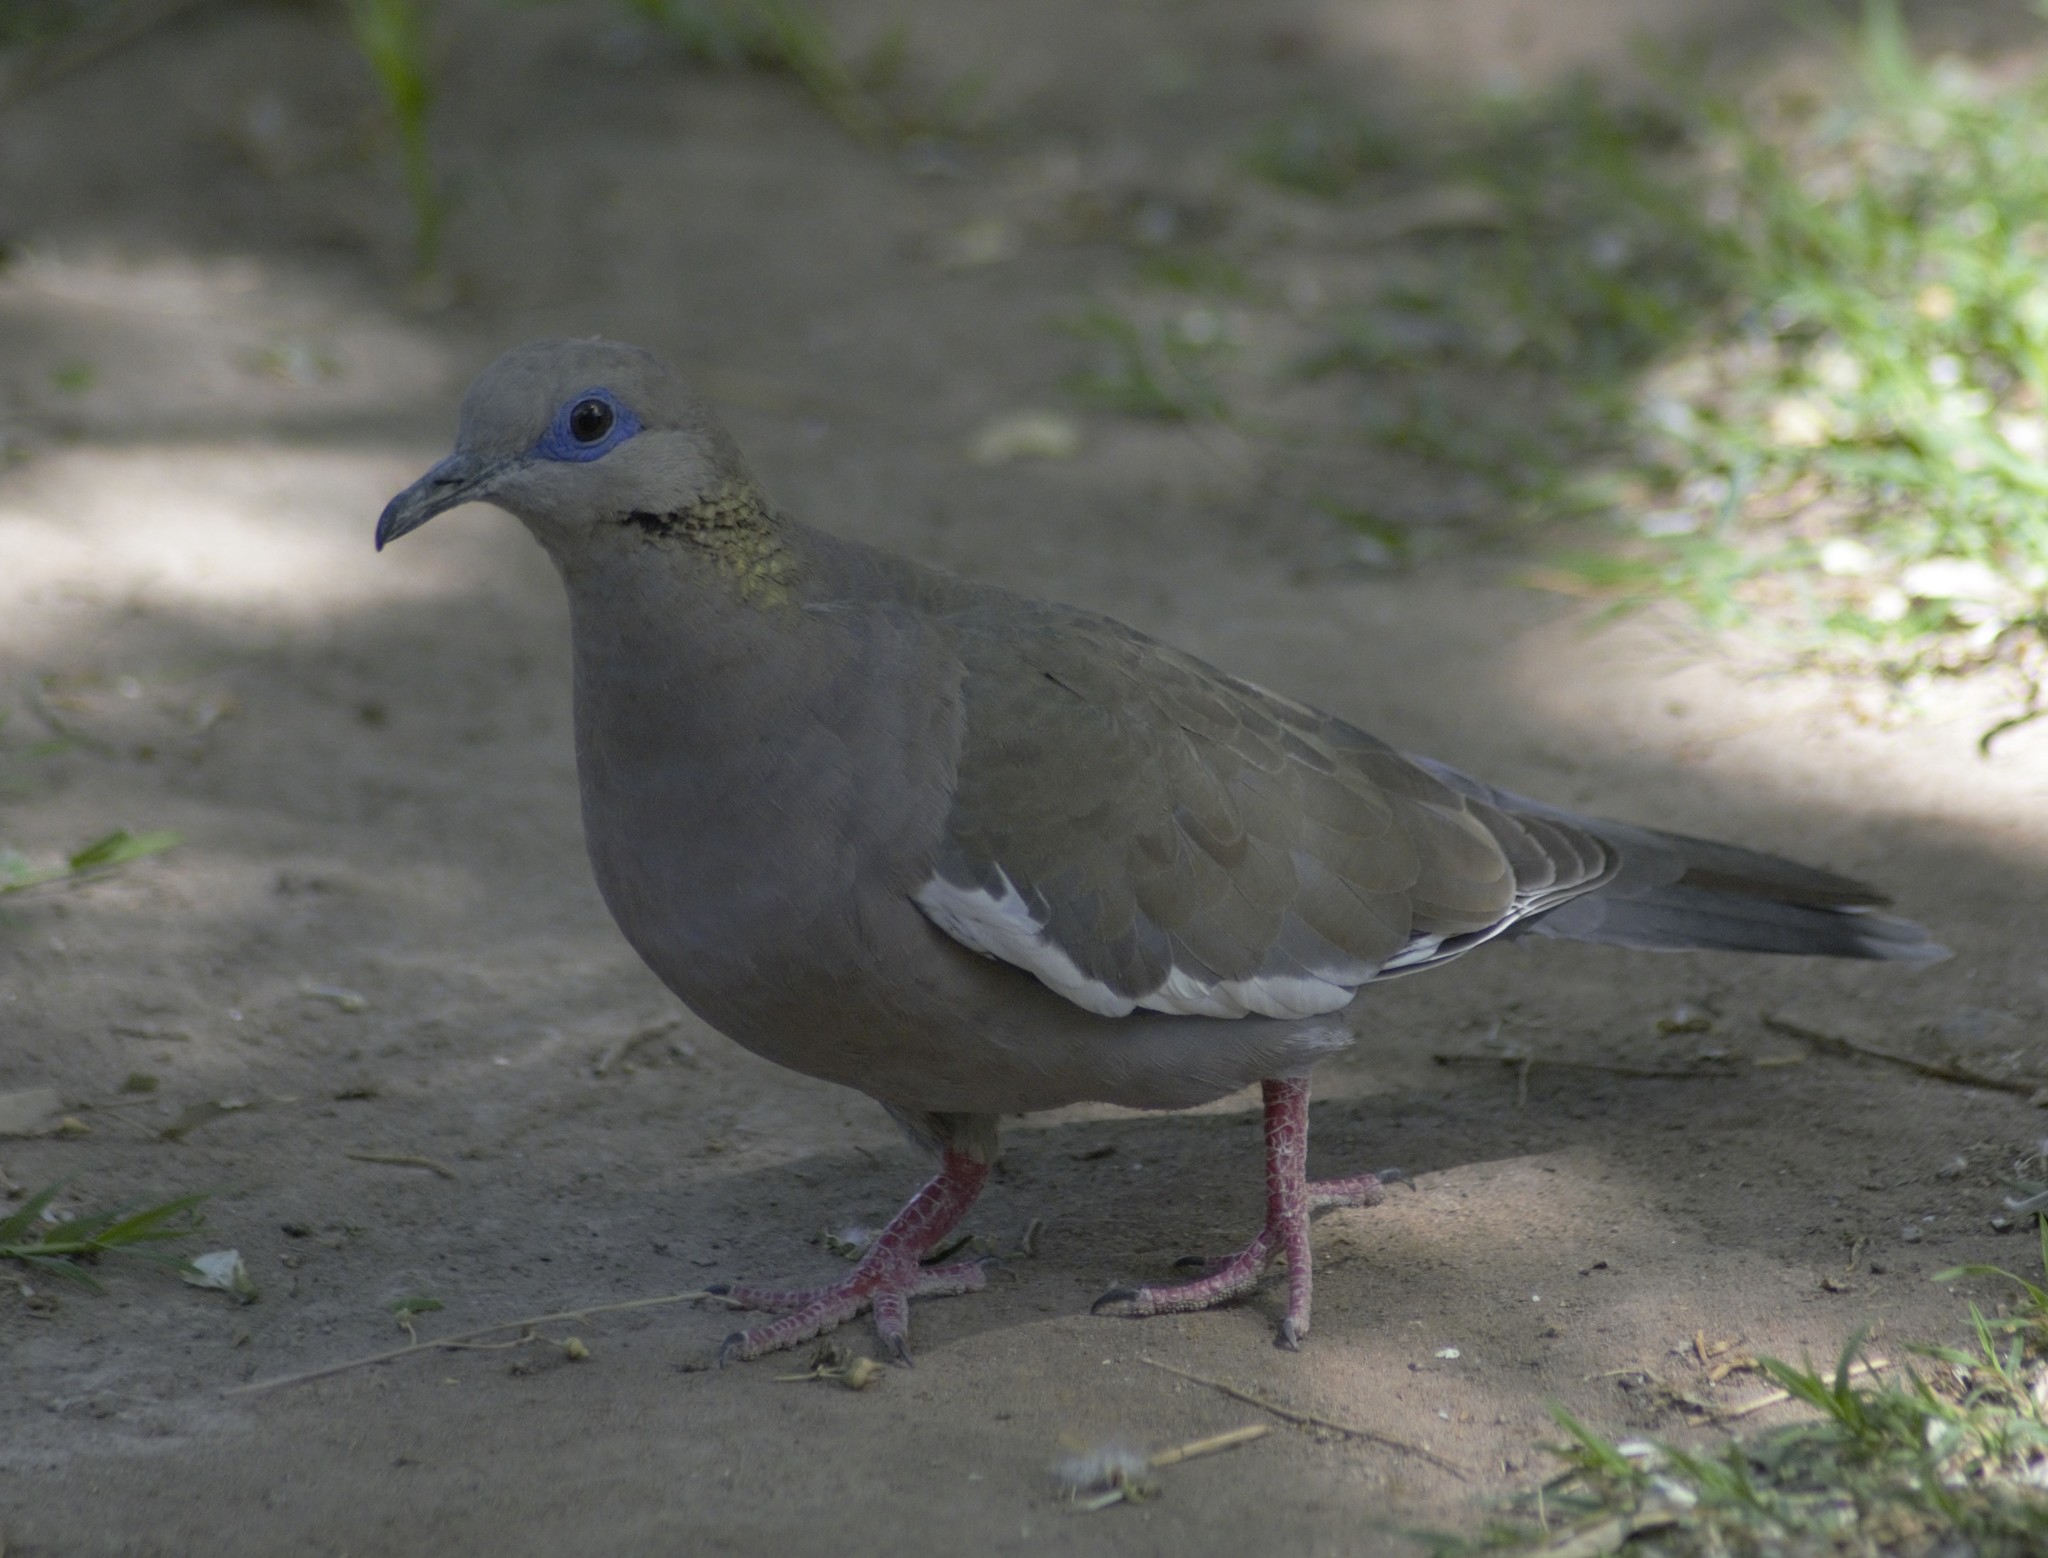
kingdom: Animalia
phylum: Chordata
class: Aves
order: Columbiformes
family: Columbidae
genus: Zenaida
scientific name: Zenaida meloda
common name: West peruvian dove
